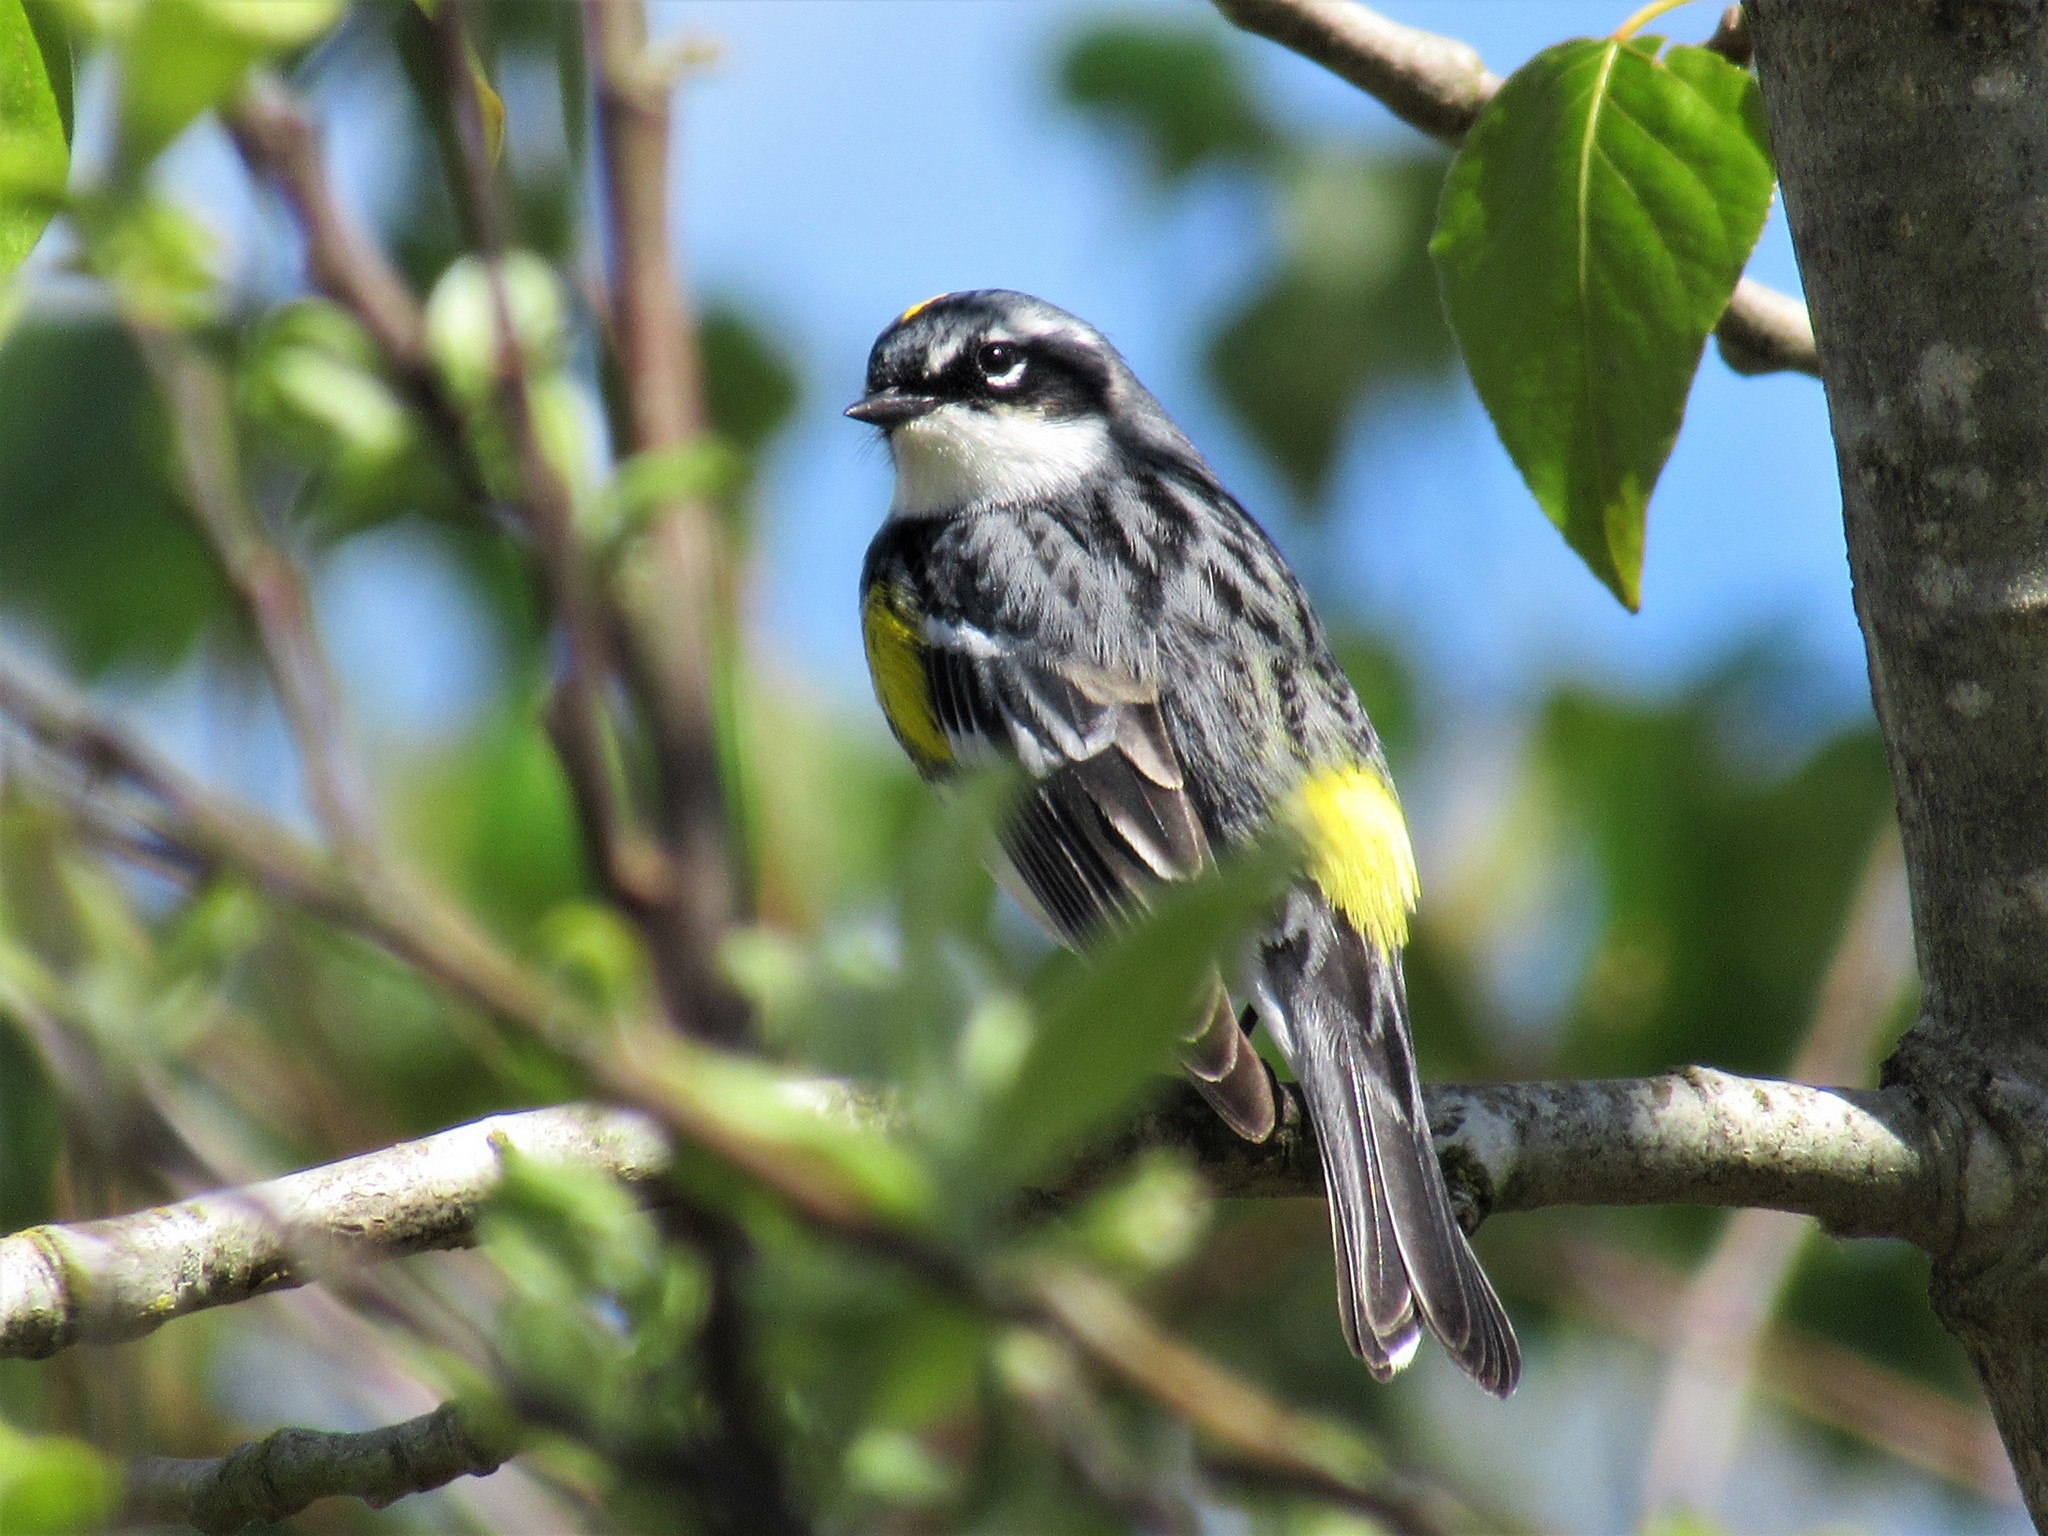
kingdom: Animalia
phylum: Chordata
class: Aves
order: Passeriformes
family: Parulidae
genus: Setophaga
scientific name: Setophaga coronata
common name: Myrtle warbler
